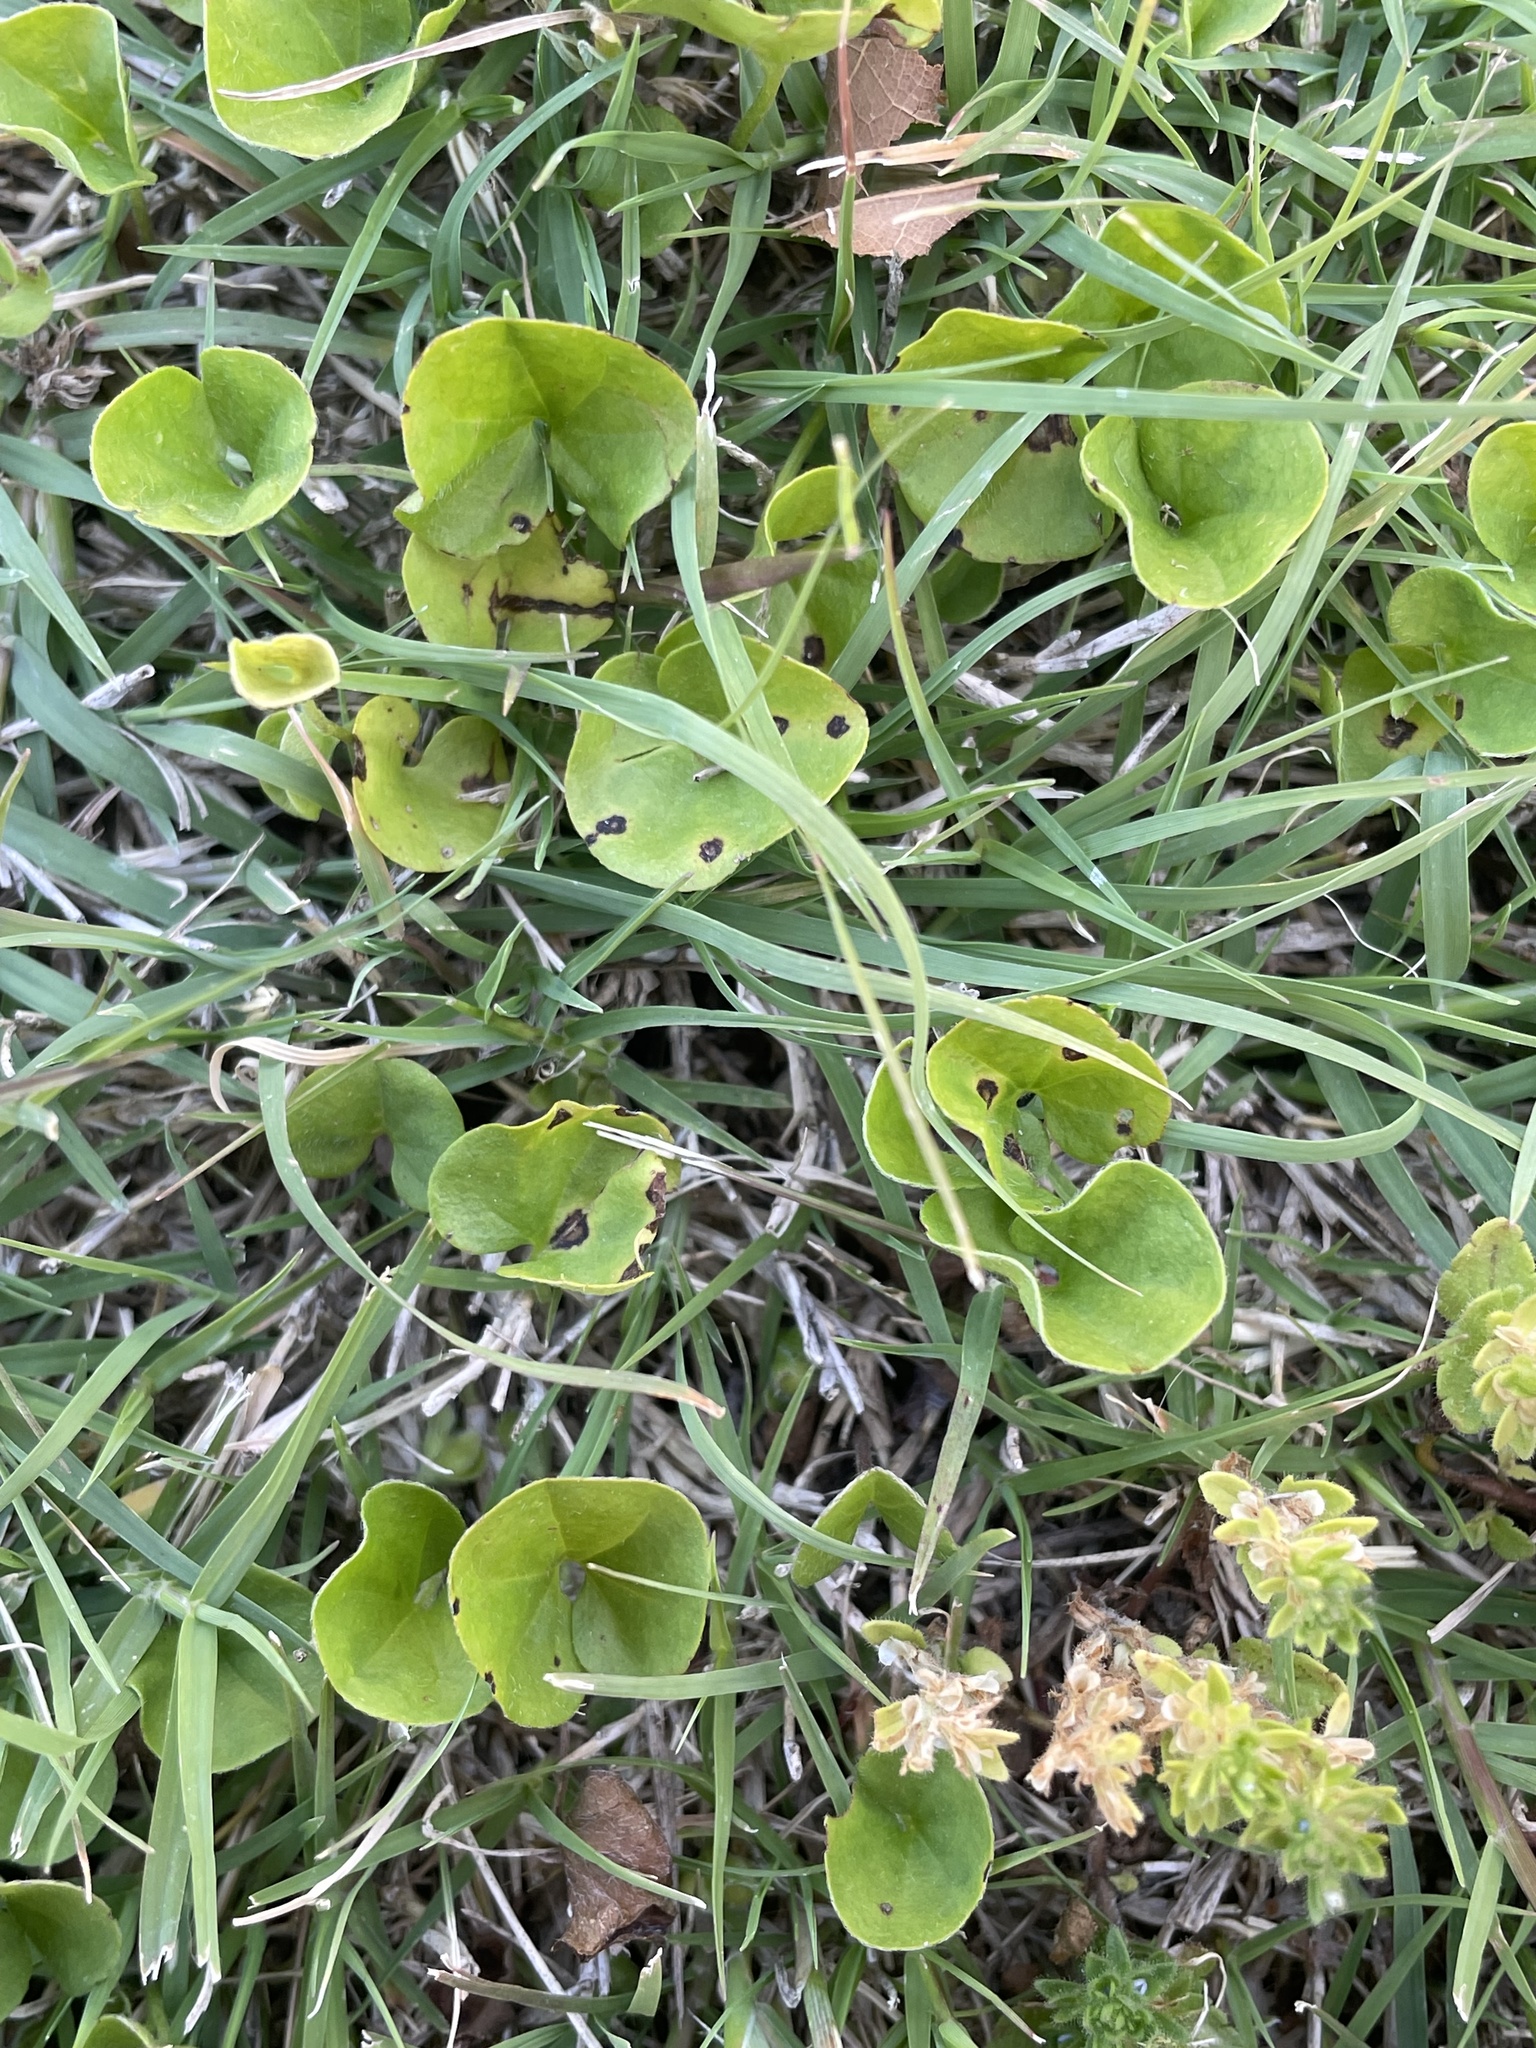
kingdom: Plantae
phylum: Tracheophyta
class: Magnoliopsida
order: Solanales
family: Convolvulaceae
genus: Dichondra
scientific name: Dichondra carolinensis
